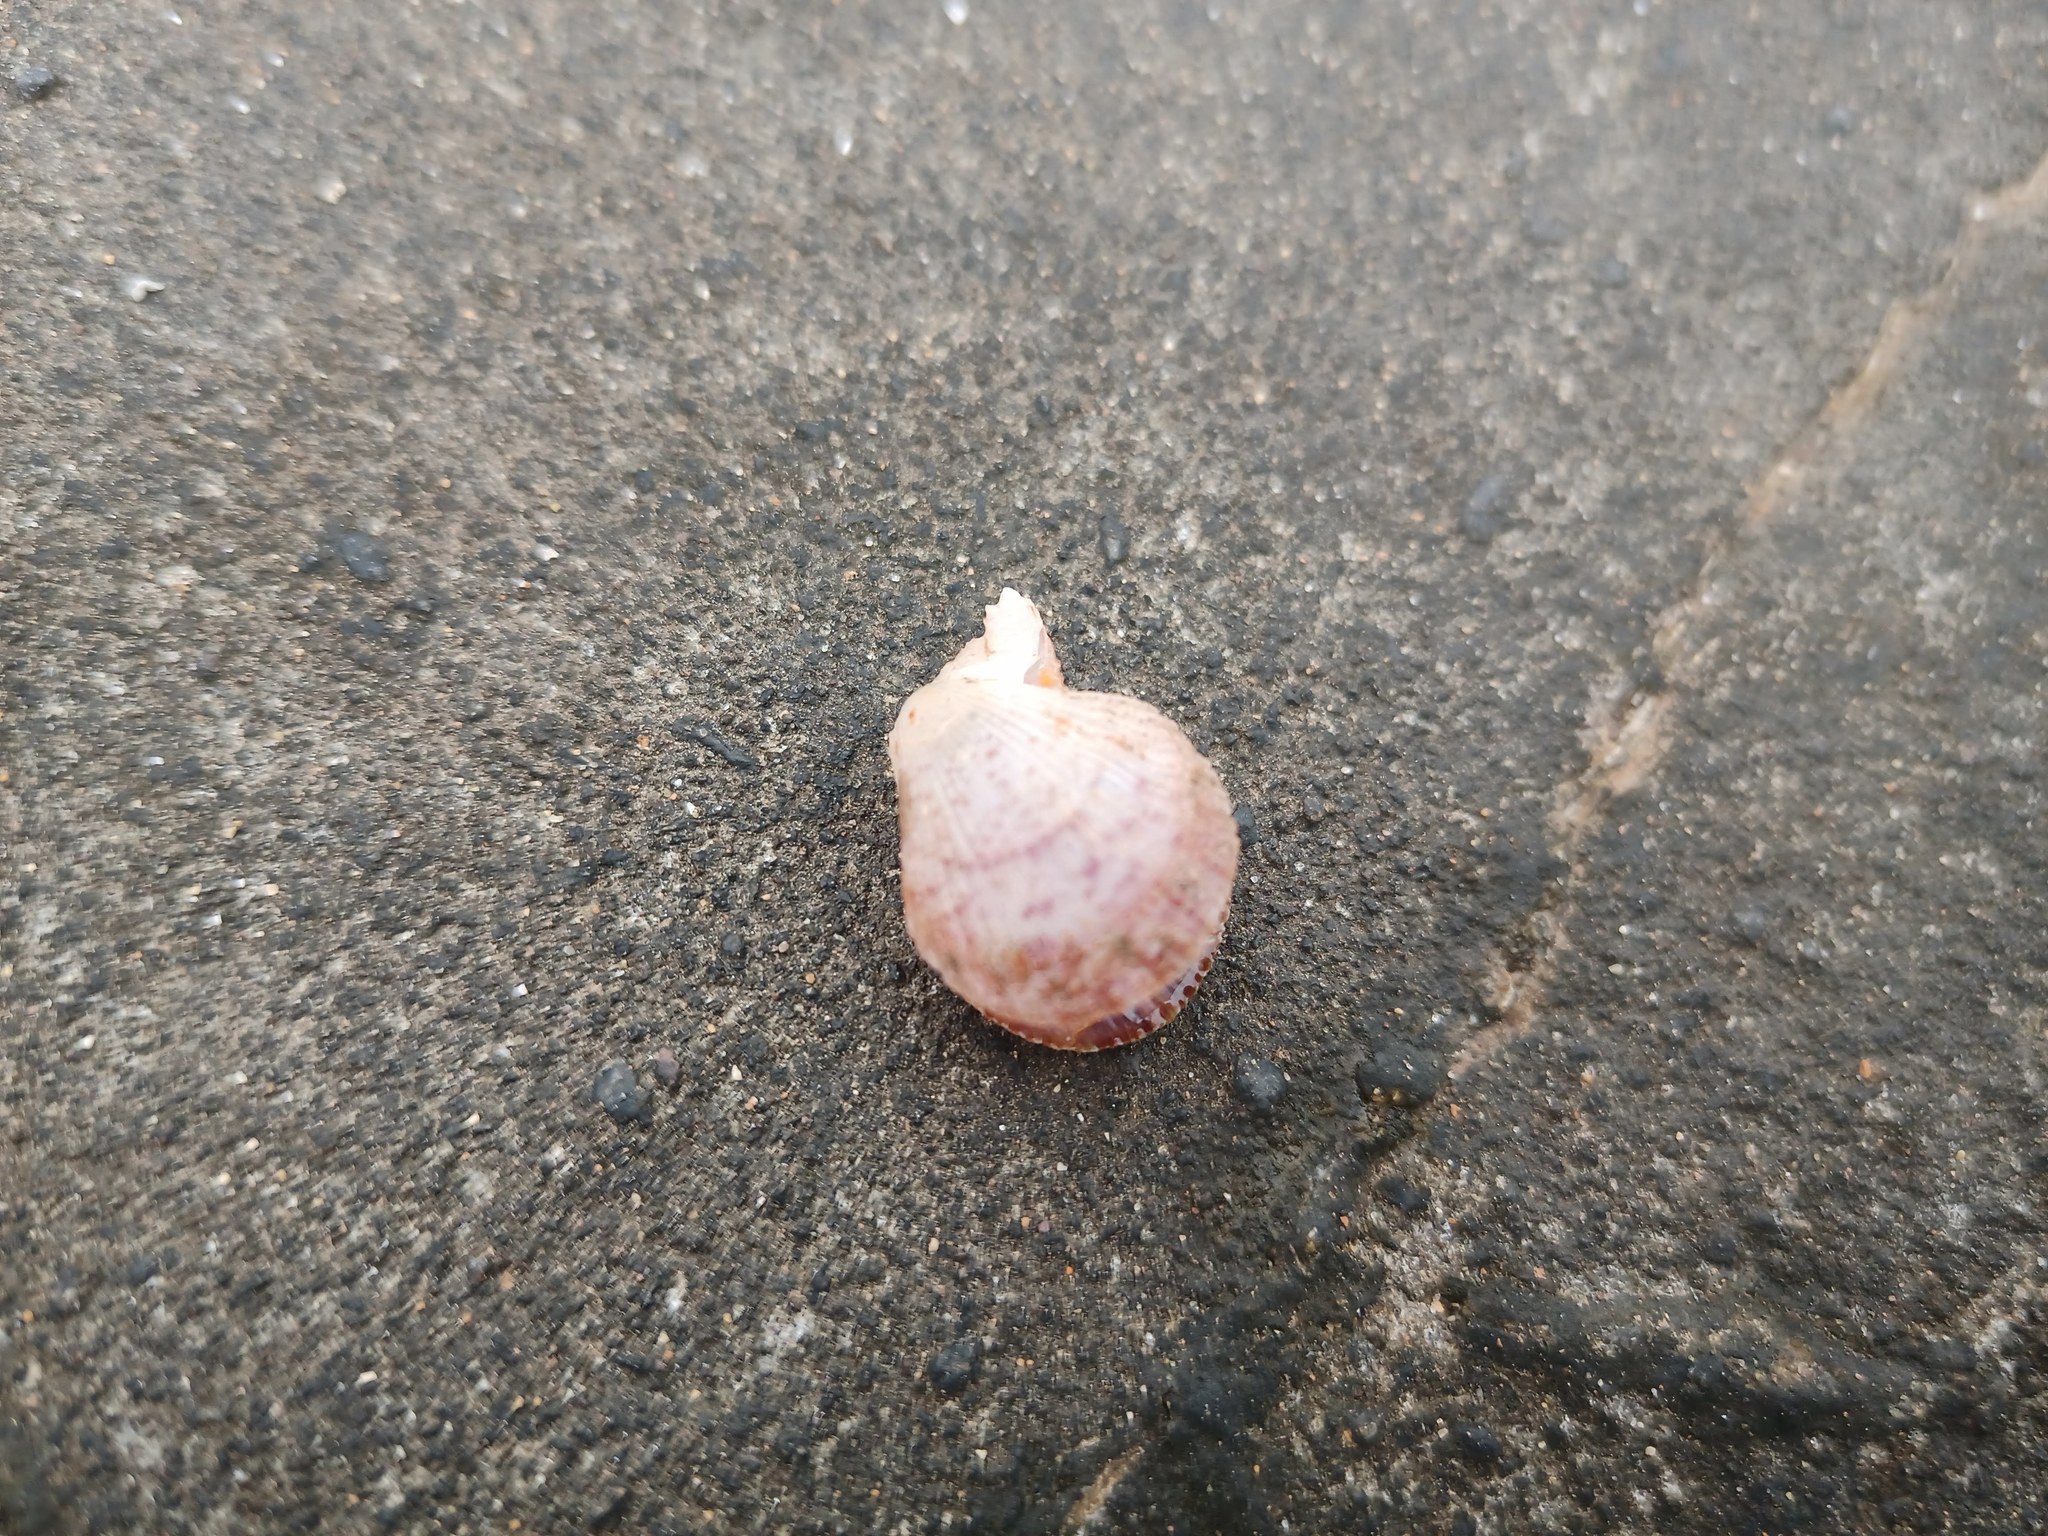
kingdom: Animalia
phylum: Mollusca
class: Bivalvia
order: Pectinida
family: Pectinidae
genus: Talochlamys
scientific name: Talochlamys multistriata
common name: Tinted scallop
